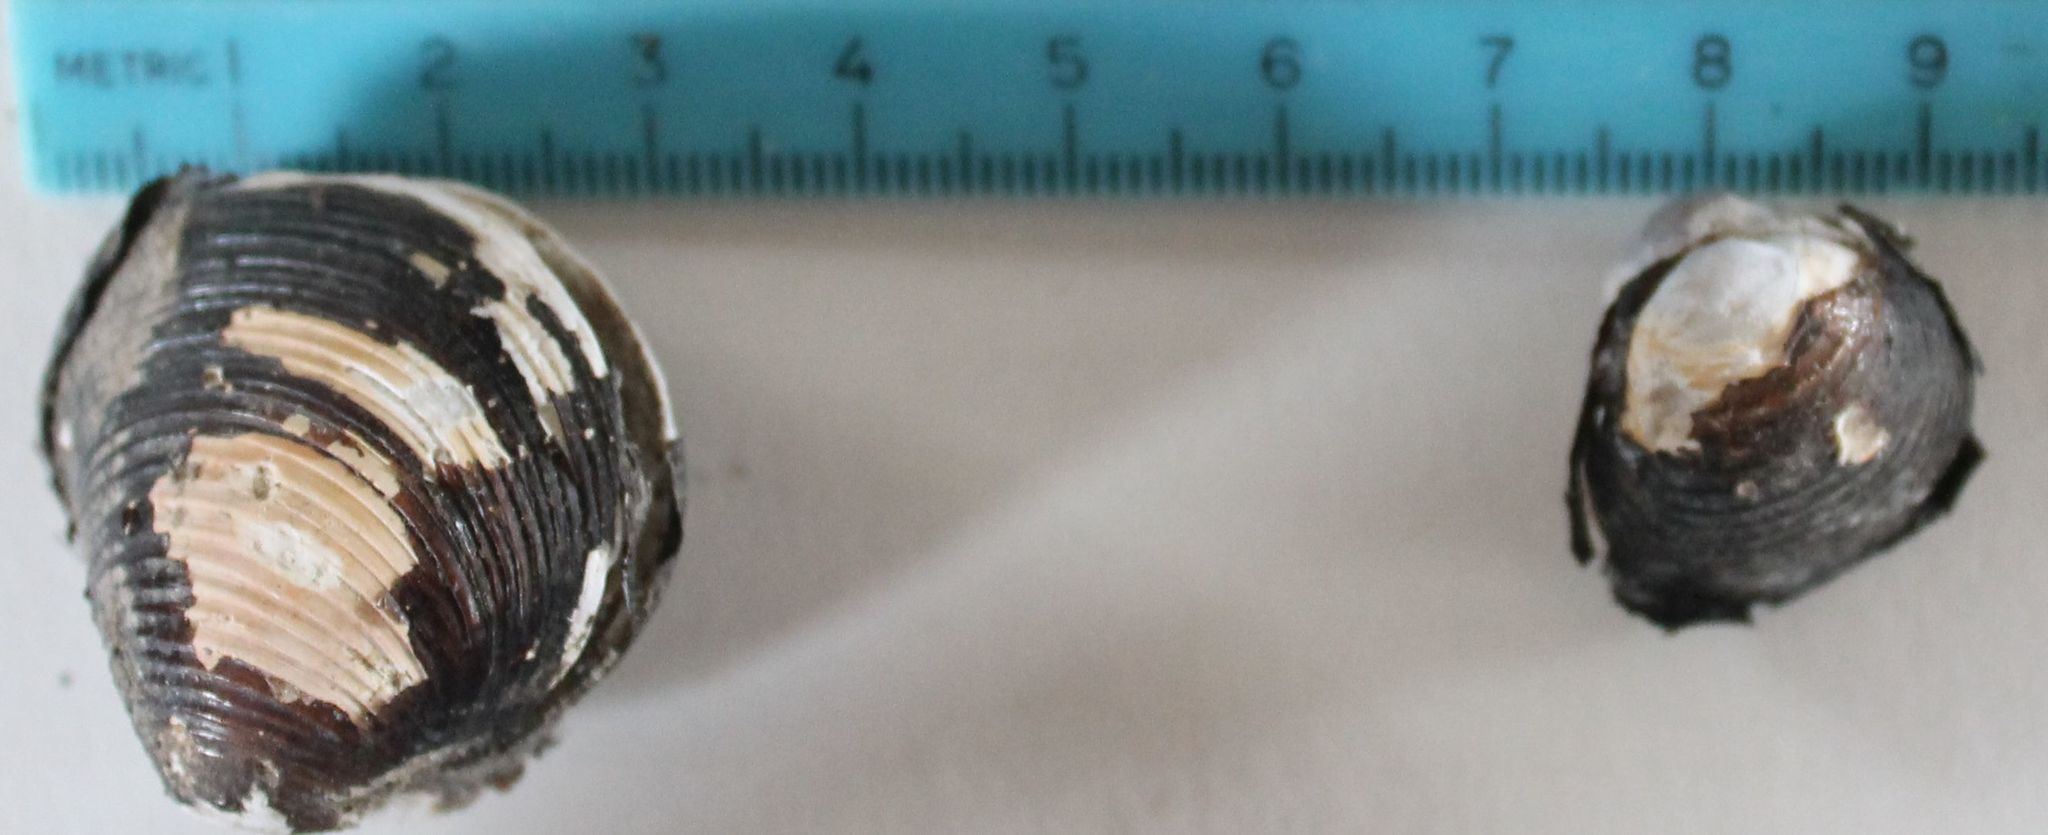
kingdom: Animalia
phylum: Mollusca
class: Bivalvia
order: Venerida
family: Cyrenidae
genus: Corbicula
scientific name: Corbicula fluminea
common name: Asian clam
